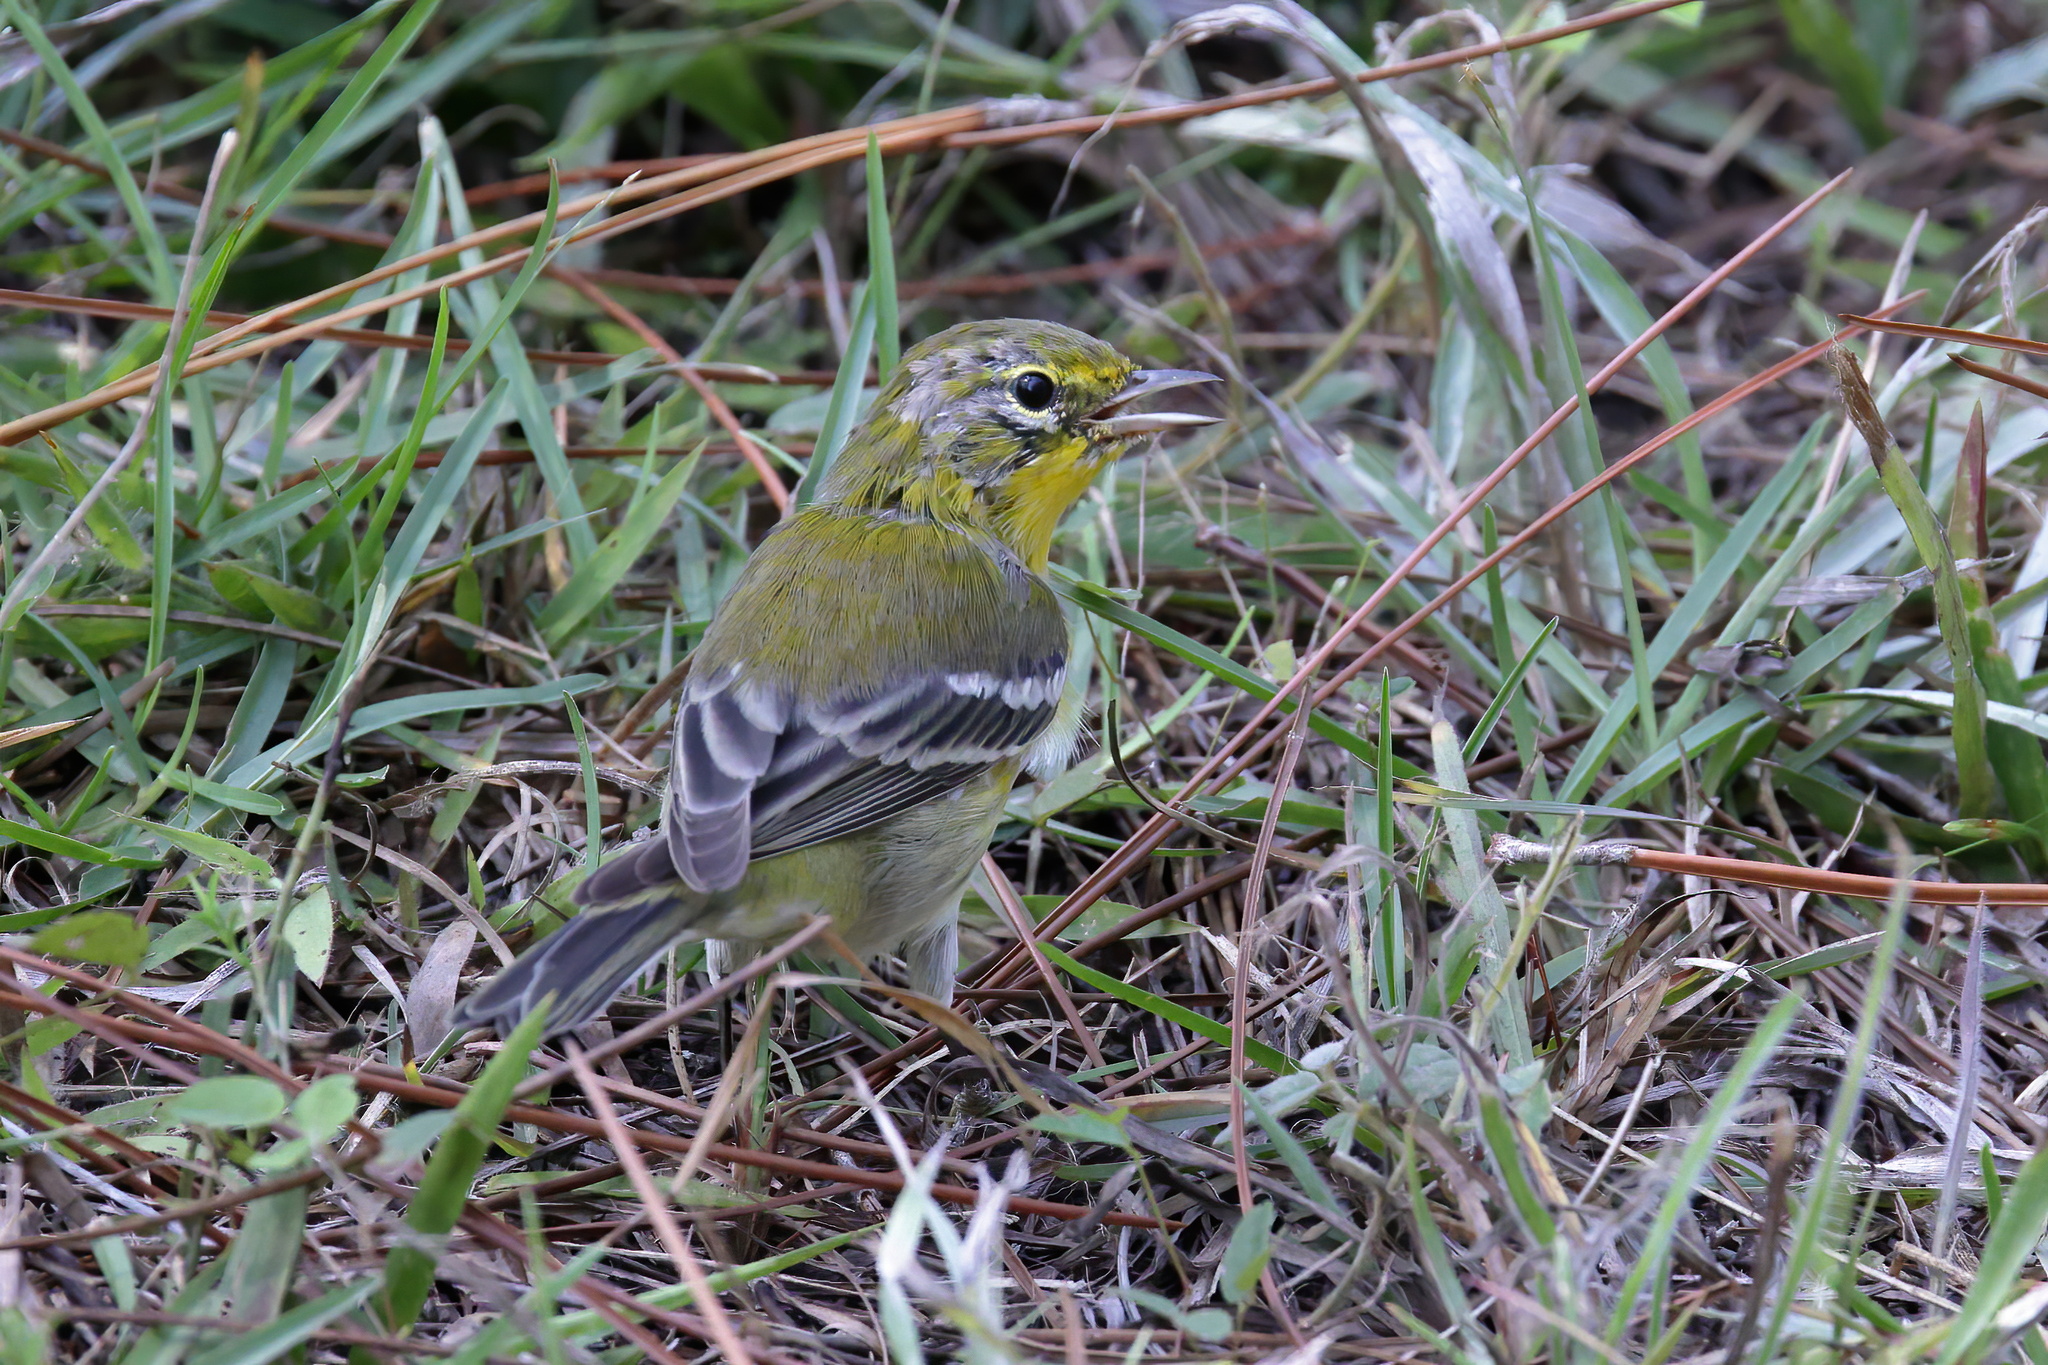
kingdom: Animalia
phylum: Chordata
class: Aves
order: Passeriformes
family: Parulidae
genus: Setophaga
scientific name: Setophaga pinus
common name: Pine warbler
